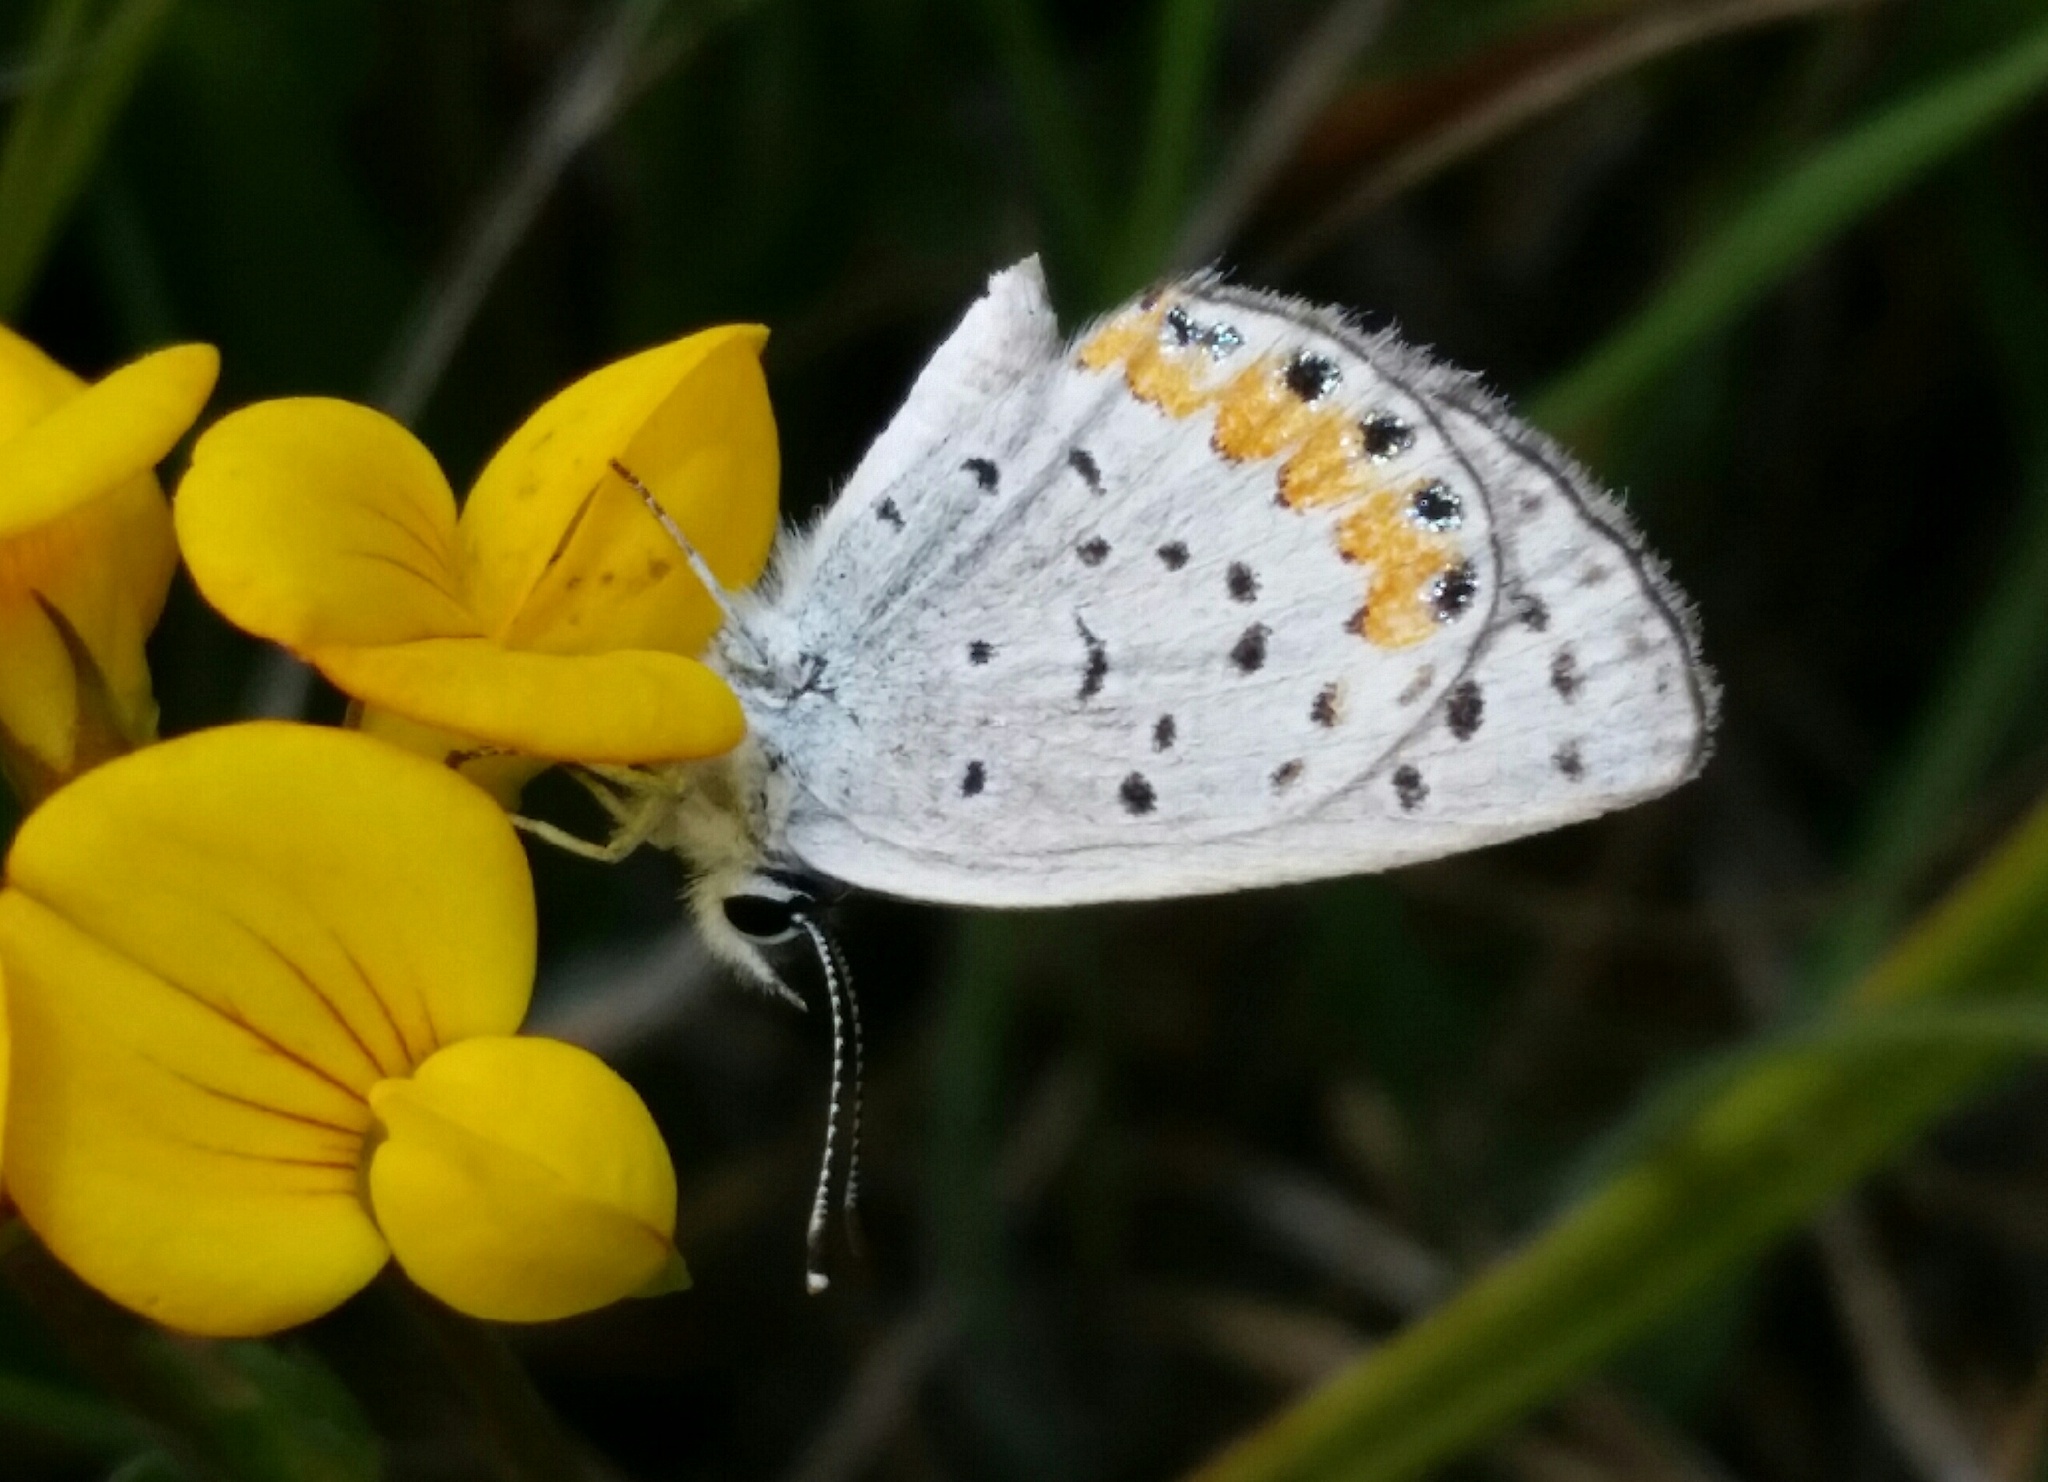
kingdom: Animalia
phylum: Arthropoda
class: Insecta
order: Lepidoptera
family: Lycaenidae
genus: Icaricia
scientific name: Icaricia acmon
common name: Acmon blue
